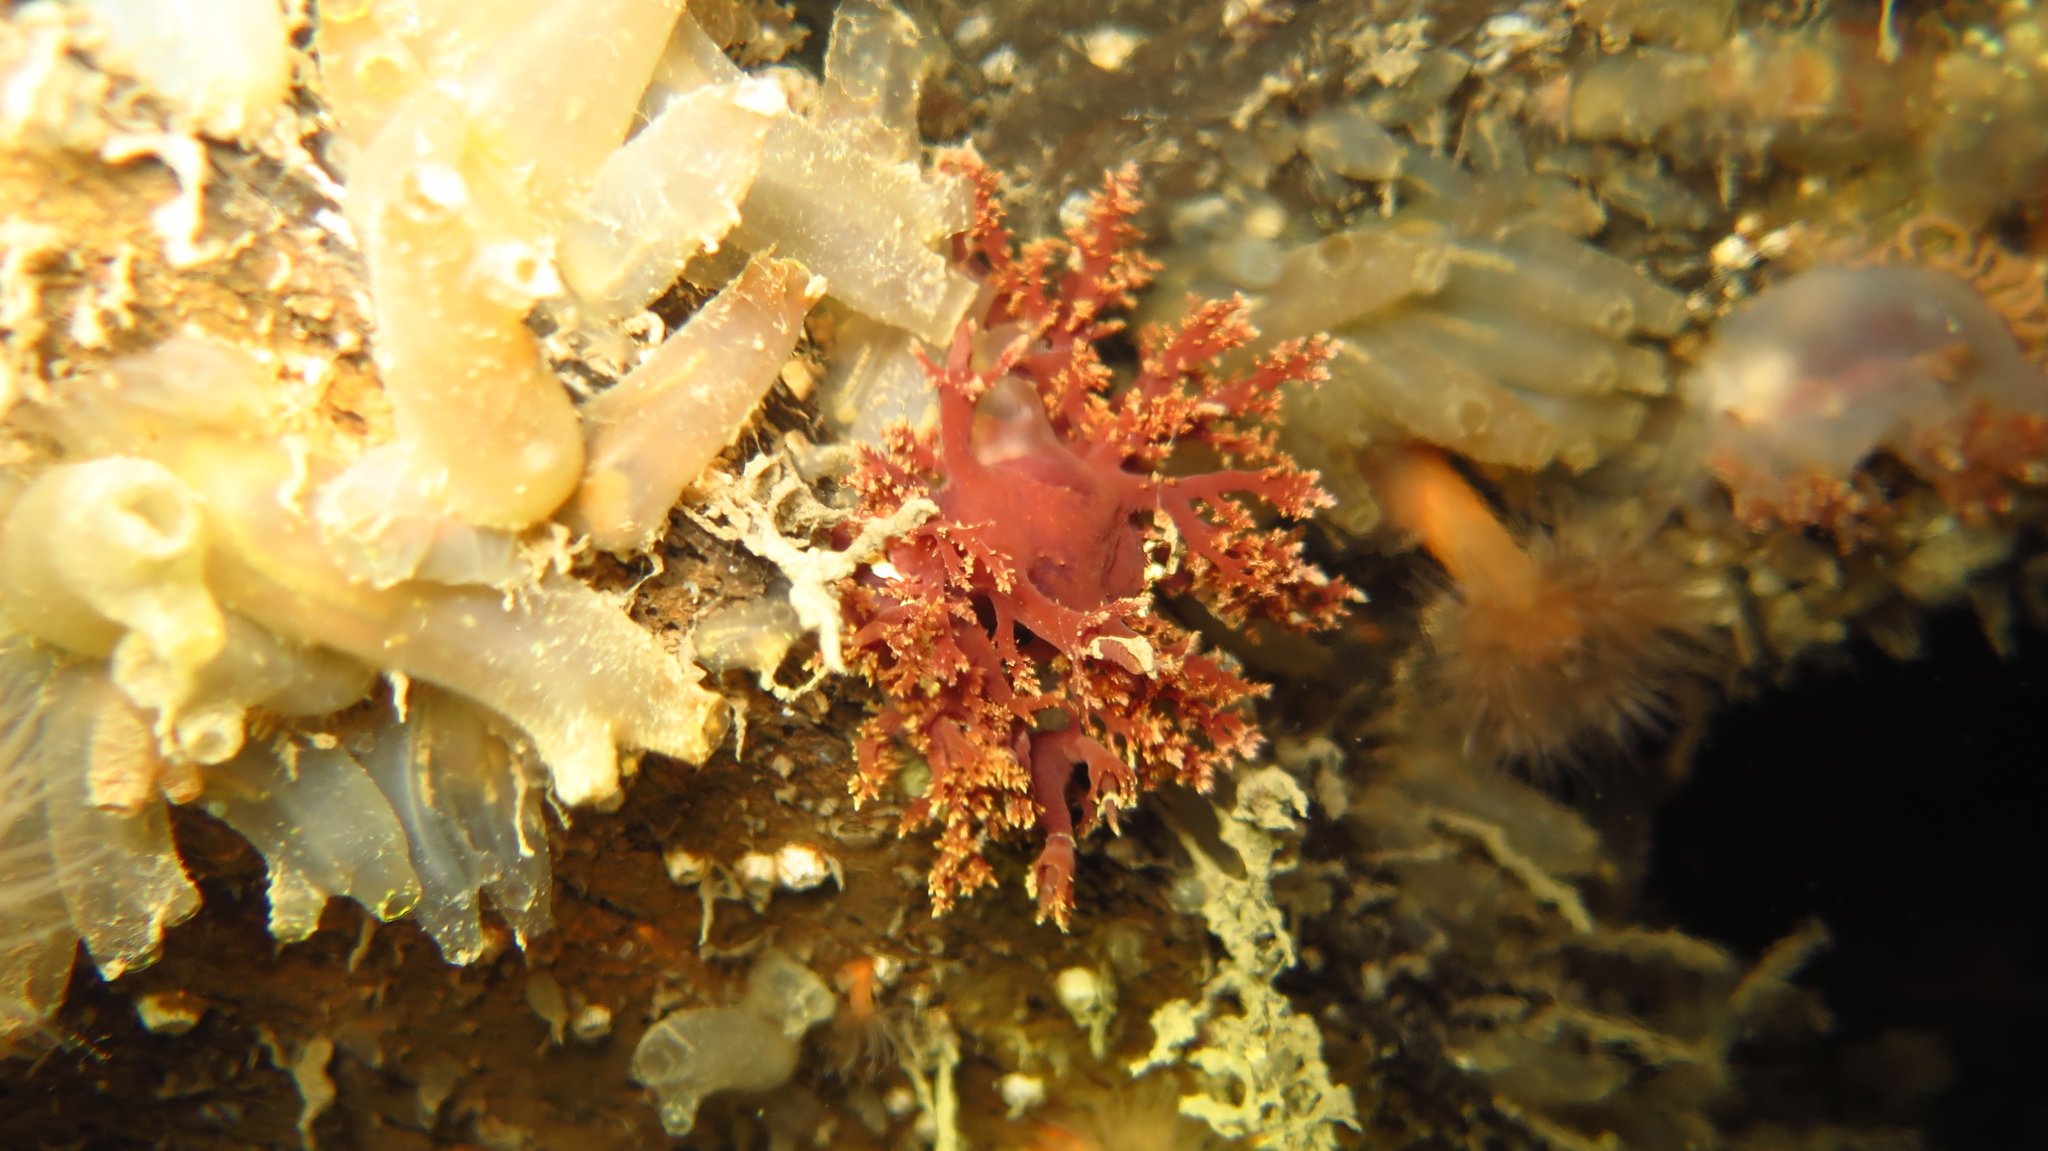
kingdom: Animalia
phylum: Mollusca
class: Gastropoda
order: Nudibranchia
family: Dendronotidae
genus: Dendronotus
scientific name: Dendronotus frondosus
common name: Bushy-backed nudibranch
